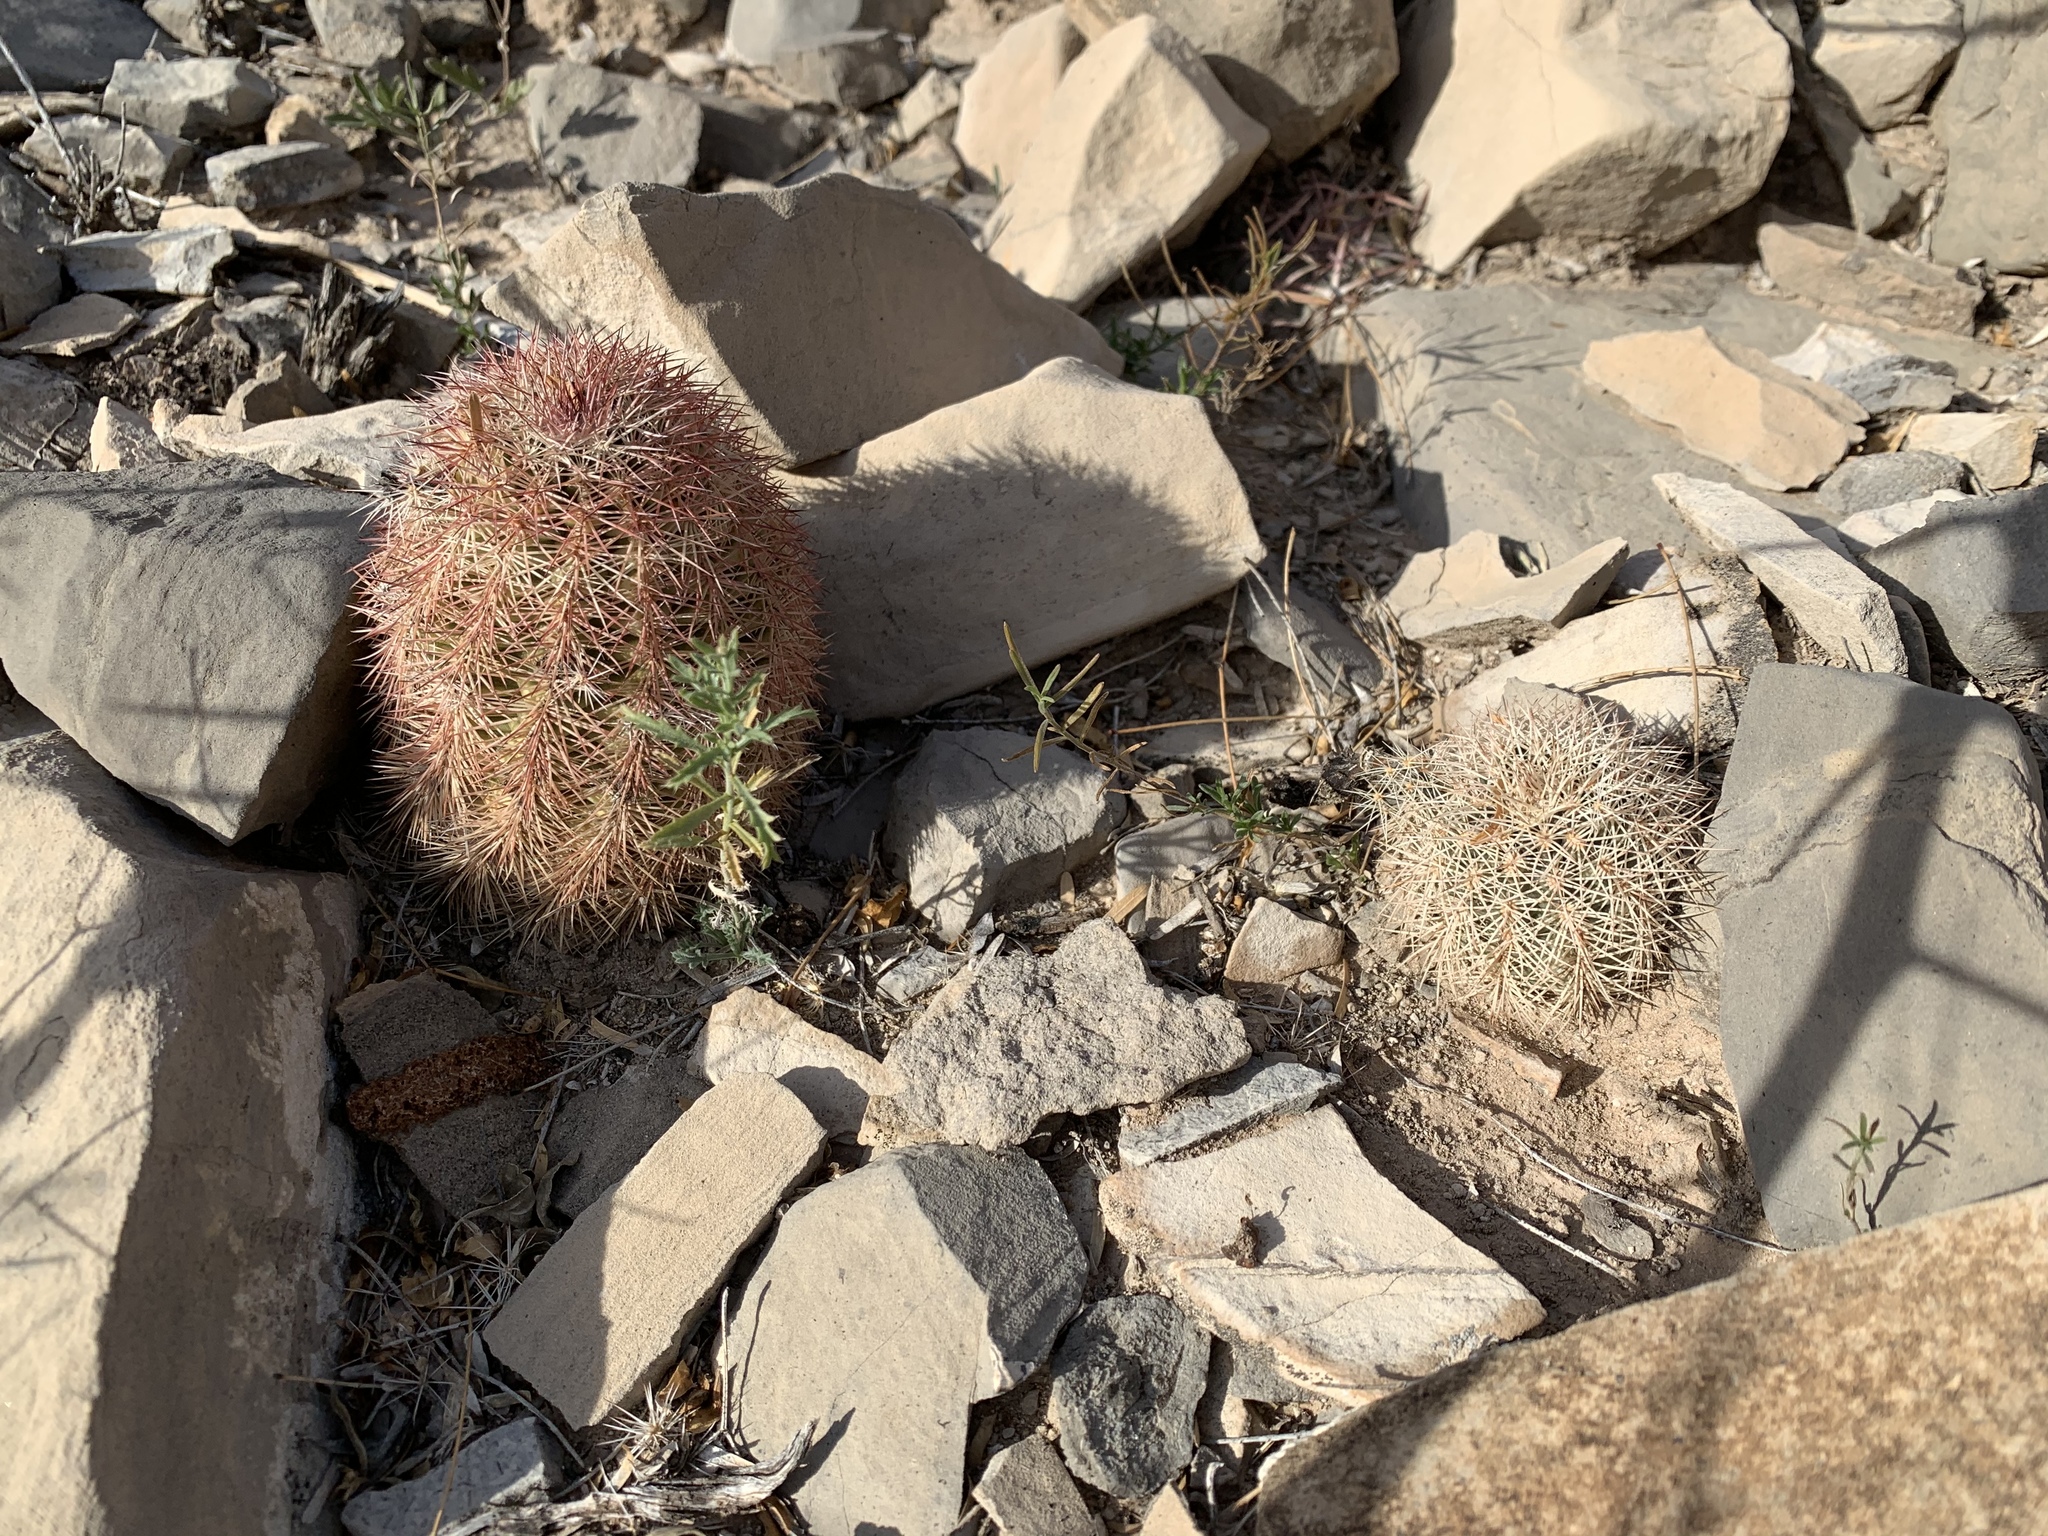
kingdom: Plantae
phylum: Tracheophyta
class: Magnoliopsida
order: Caryophyllales
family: Cactaceae
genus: Echinocereus
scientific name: Echinocereus dasyacanthus
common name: Spiny hedgehog cactus
